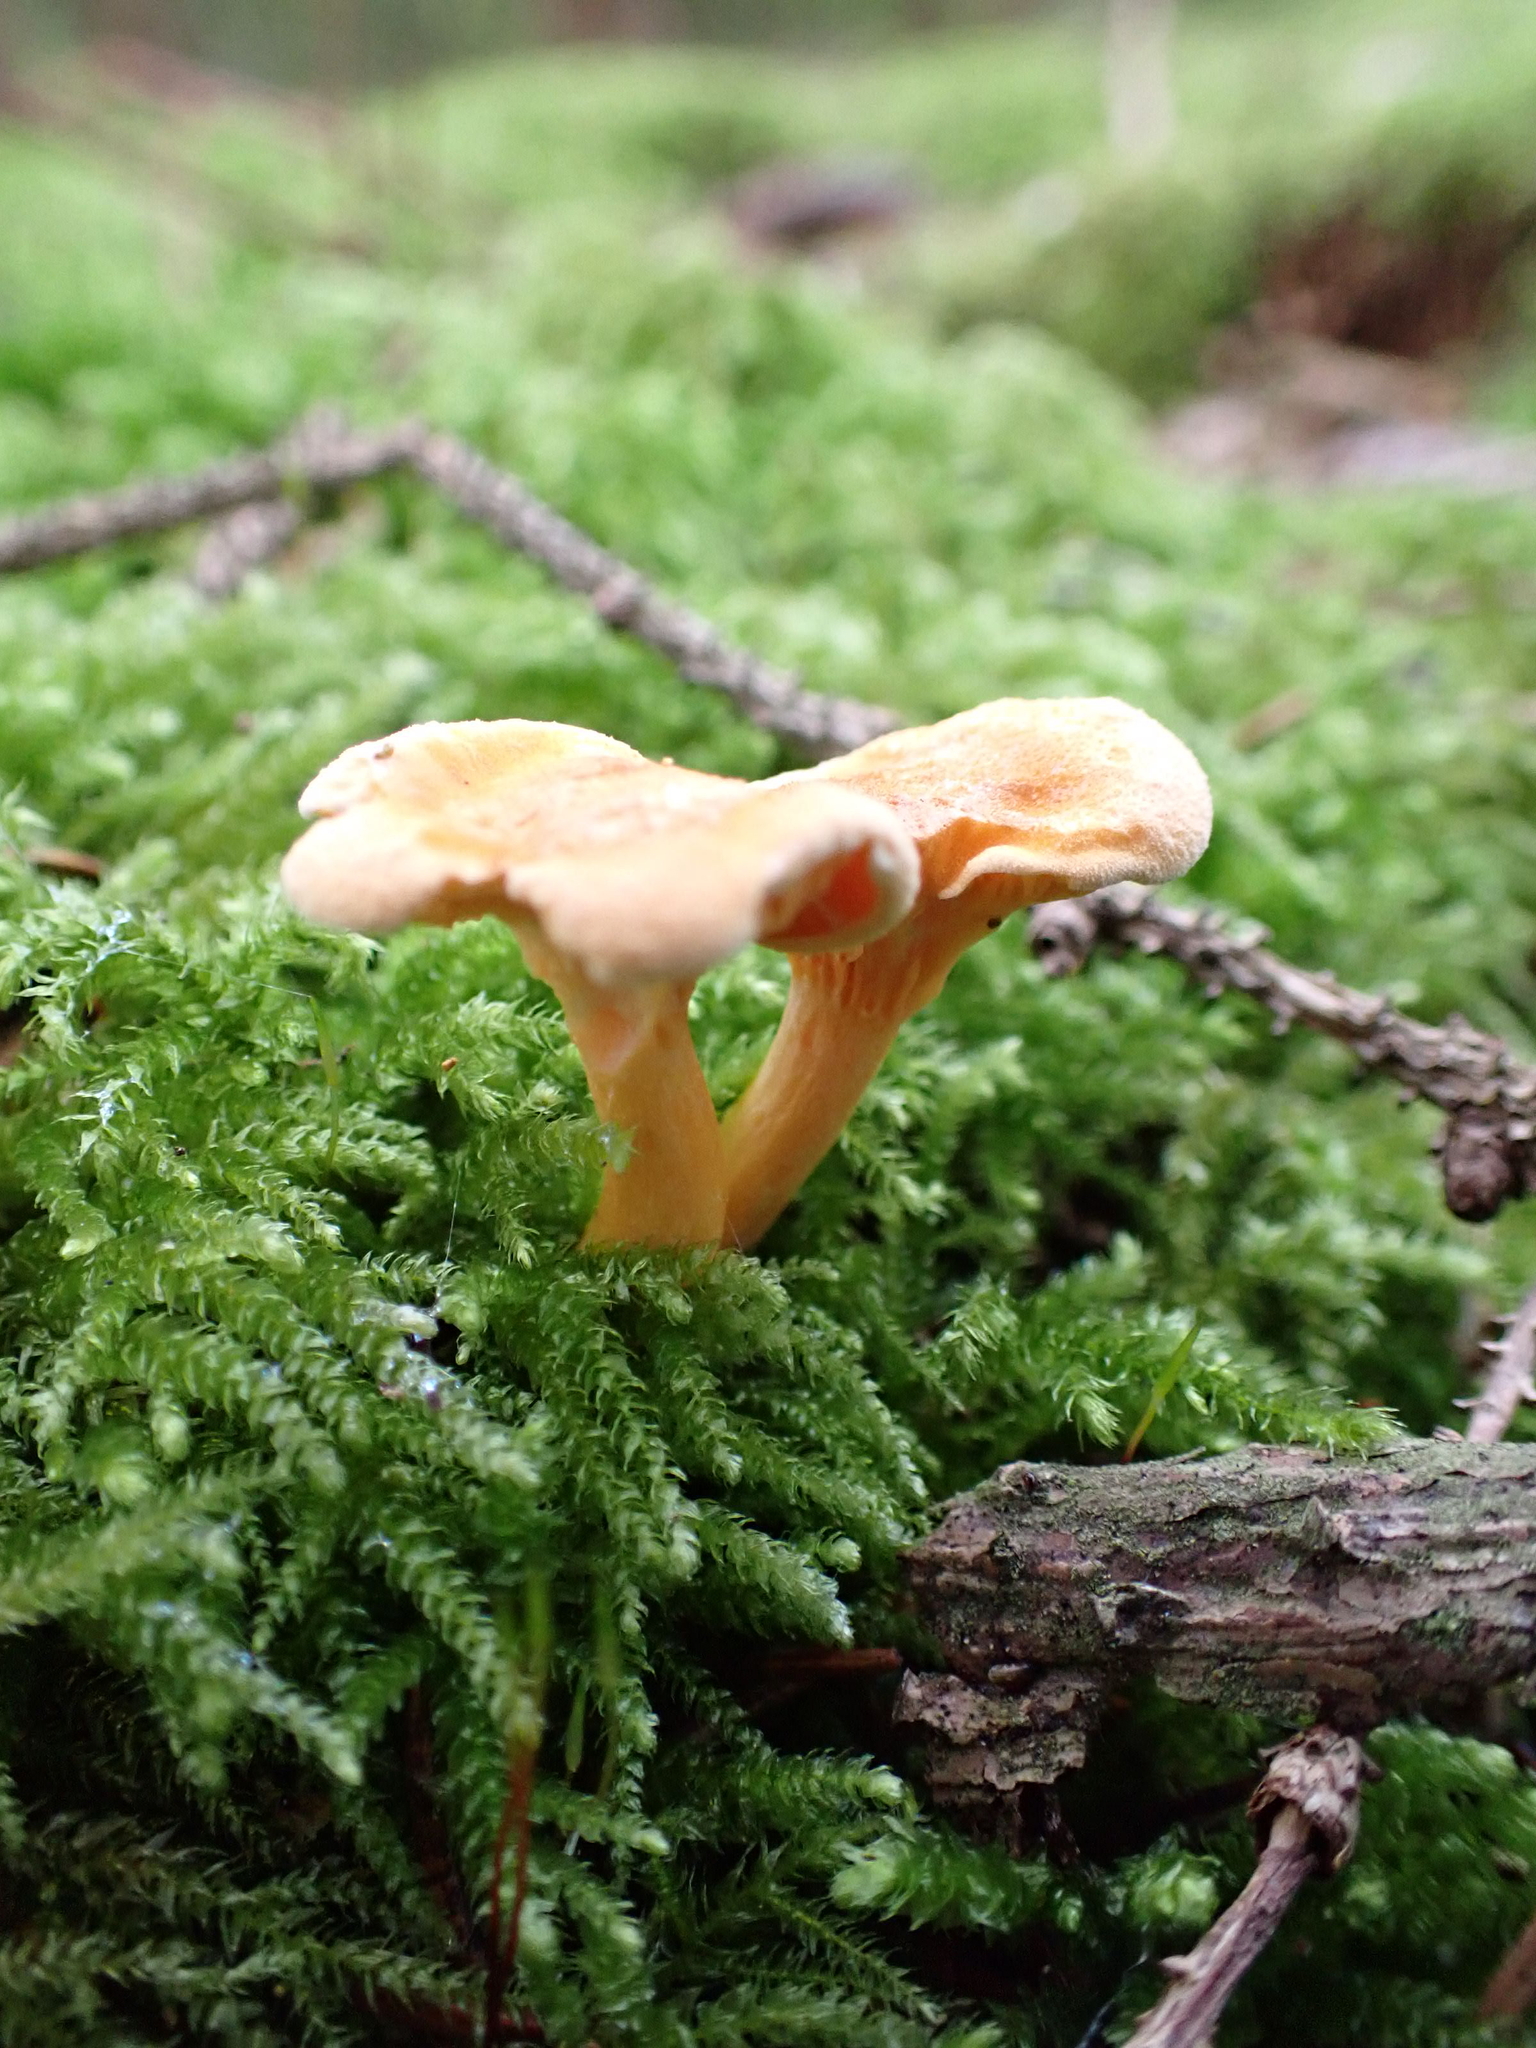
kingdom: Fungi
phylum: Basidiomycota
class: Agaricomycetes
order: Boletales
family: Hygrophoropsidaceae
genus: Hygrophoropsis
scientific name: Hygrophoropsis aurantiaca
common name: False chanterelle
